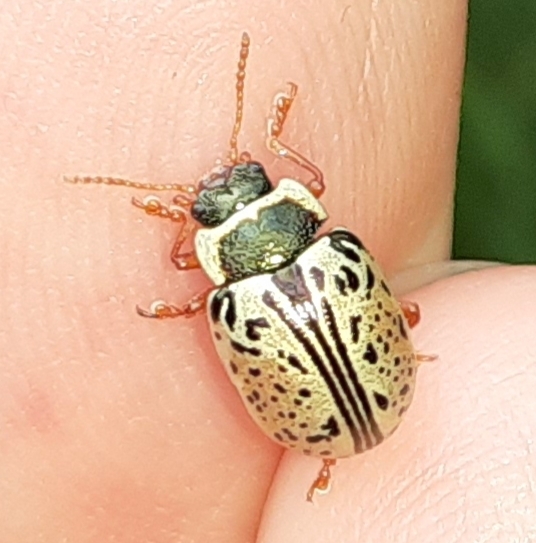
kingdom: Animalia
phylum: Arthropoda
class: Insecta
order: Coleoptera
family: Chrysomelidae
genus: Calligrapha
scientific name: Calligrapha multipunctata
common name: Common willow calligrapher beetle
